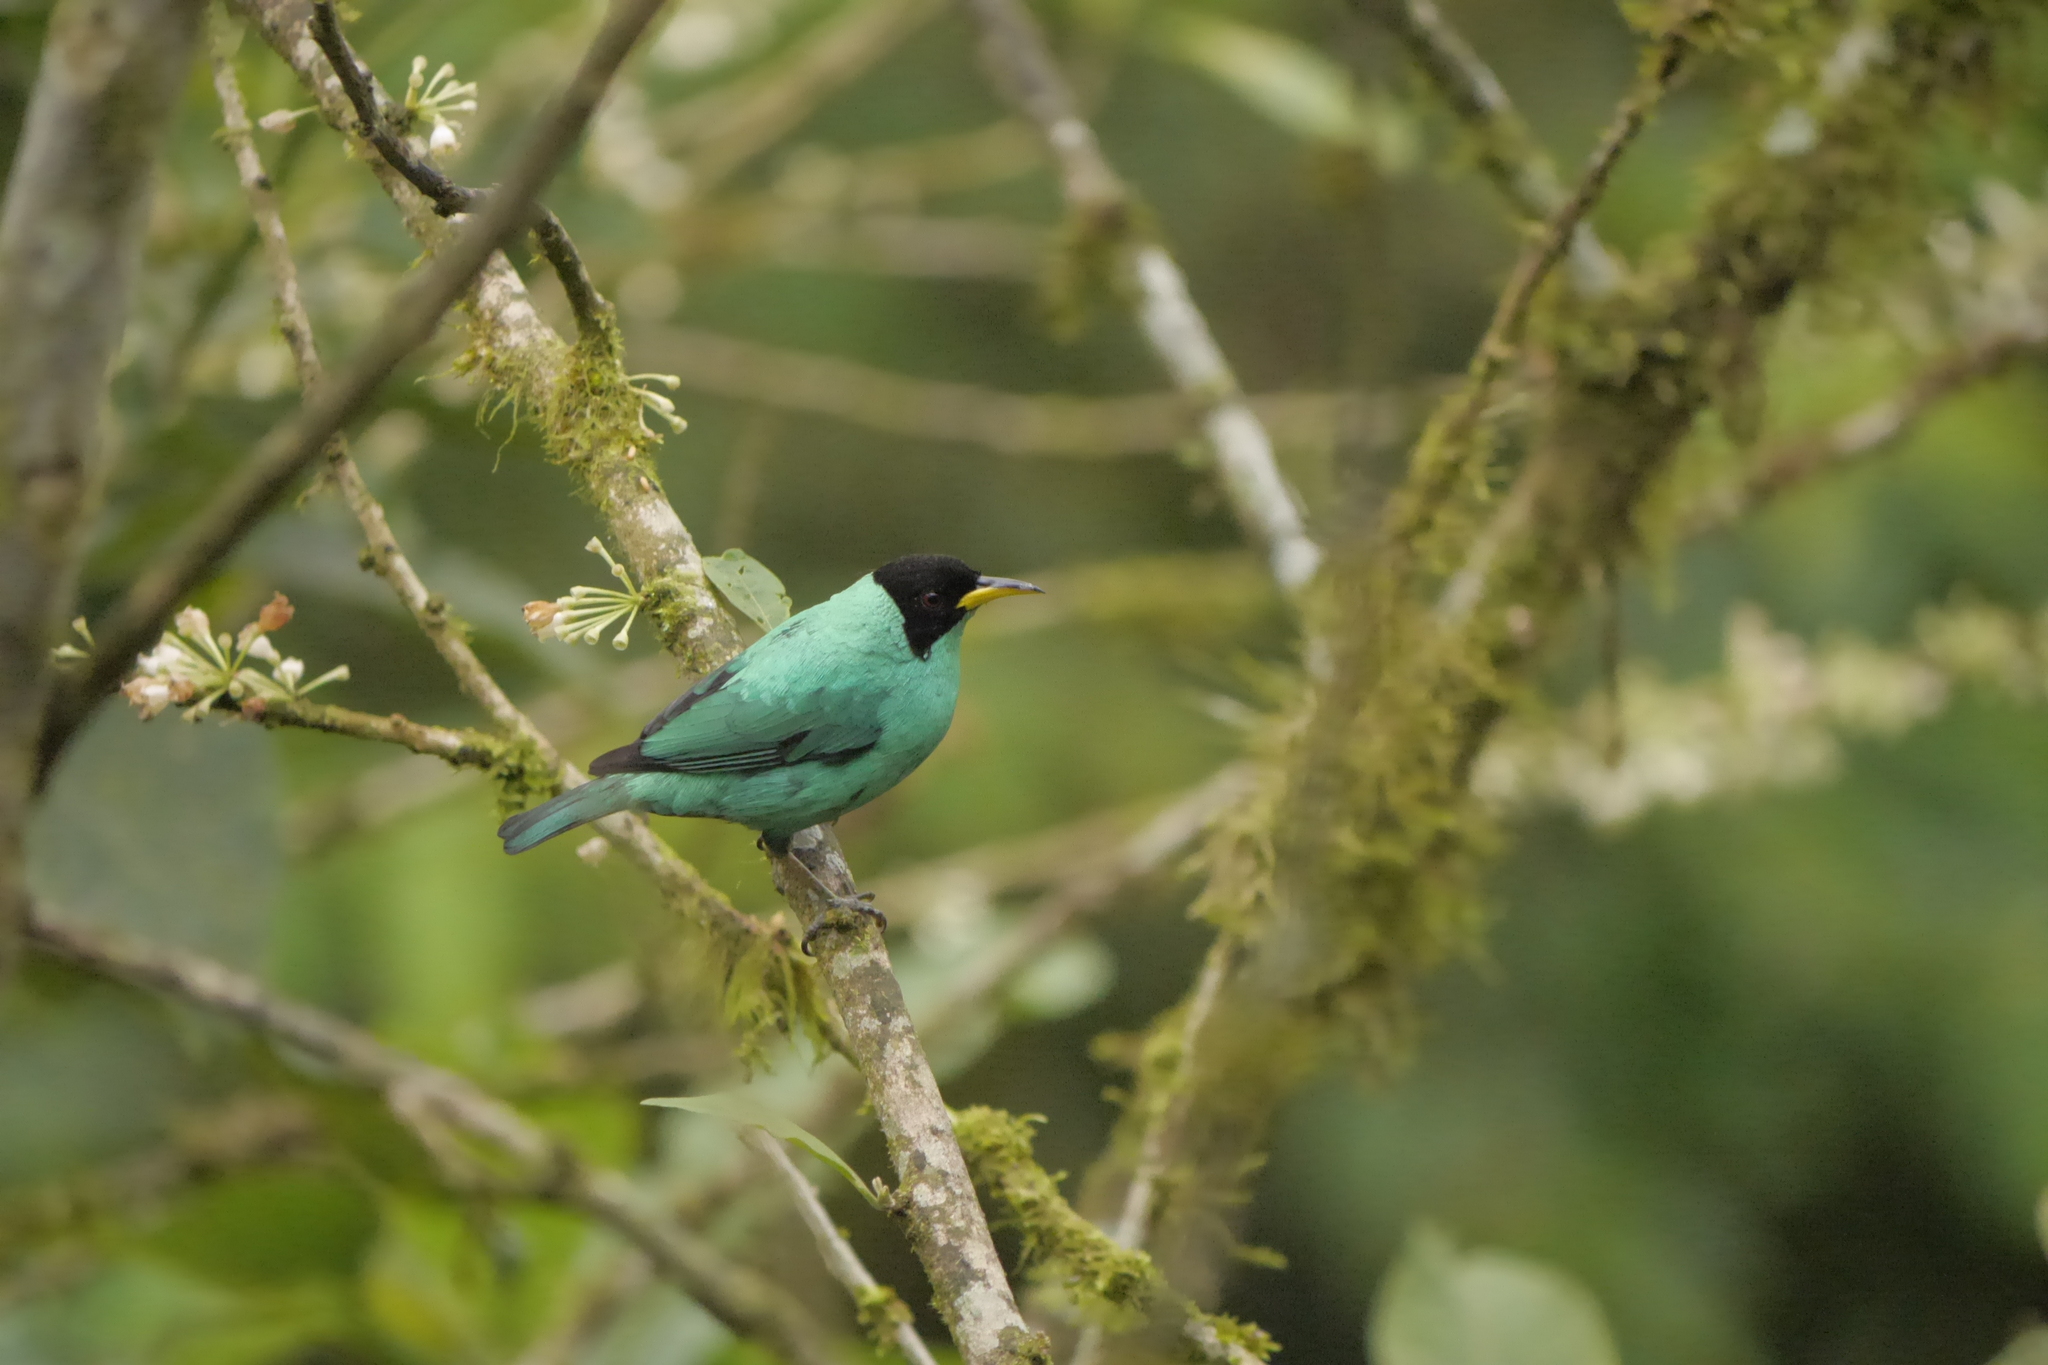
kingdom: Animalia
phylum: Chordata
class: Aves
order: Passeriformes
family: Thraupidae
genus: Chlorophanes
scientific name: Chlorophanes spiza
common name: Green honeycreeper
